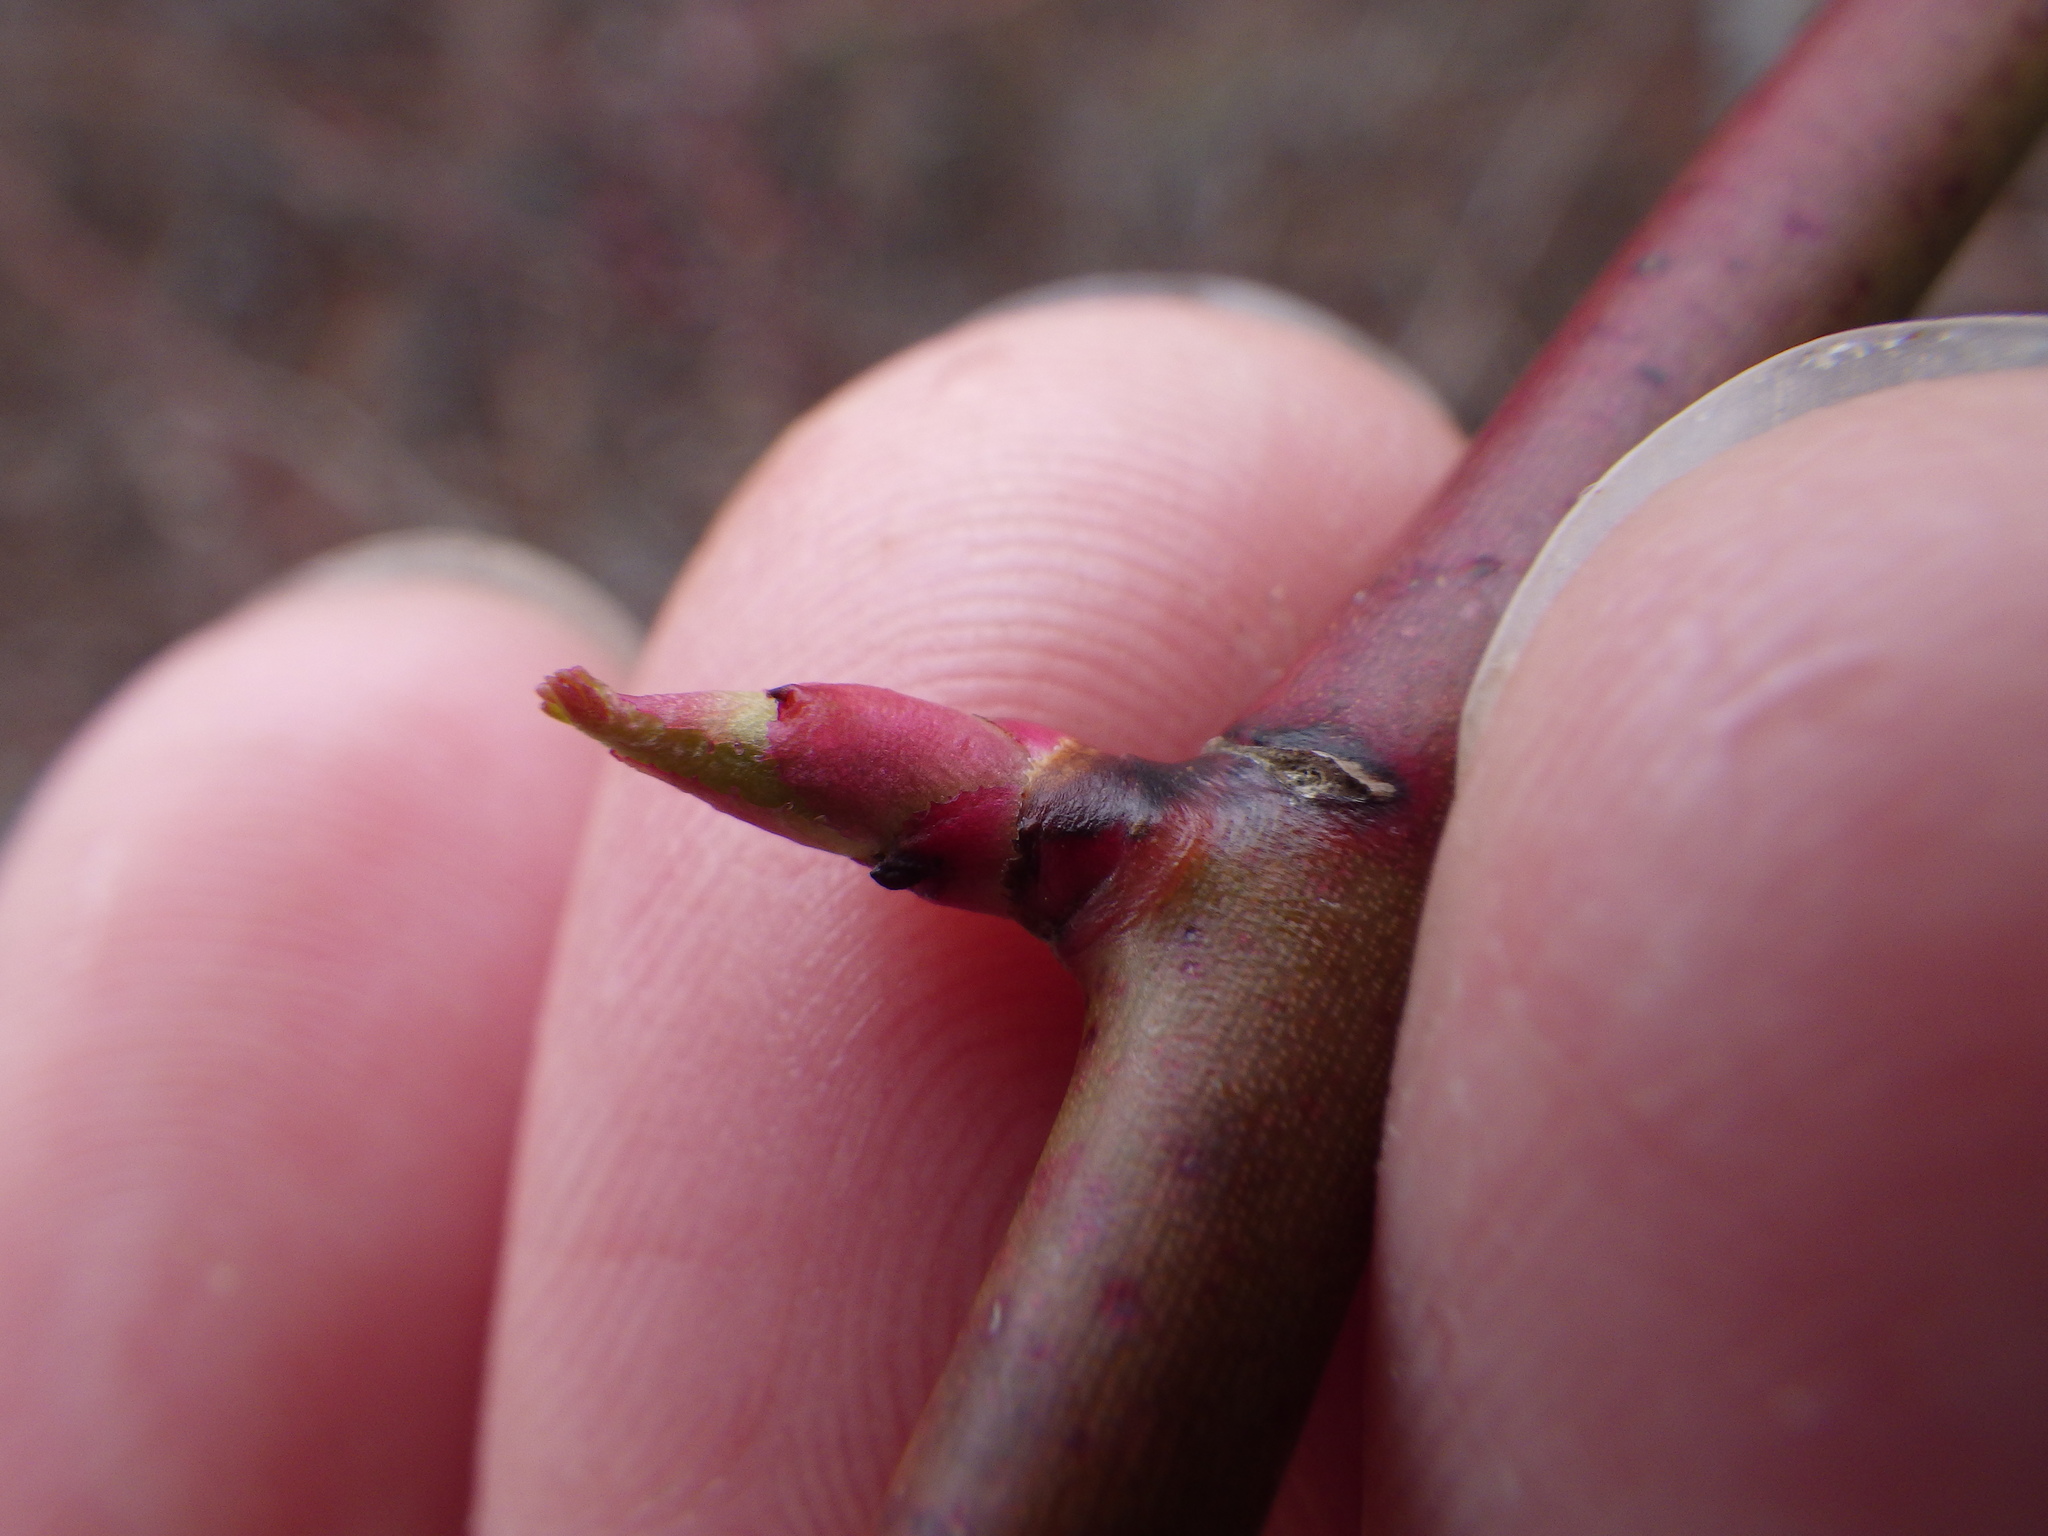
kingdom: Plantae
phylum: Tracheophyta
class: Magnoliopsida
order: Rosales
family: Rosaceae
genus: Rosa
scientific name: Rosa multiflora
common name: Multiflora rose
